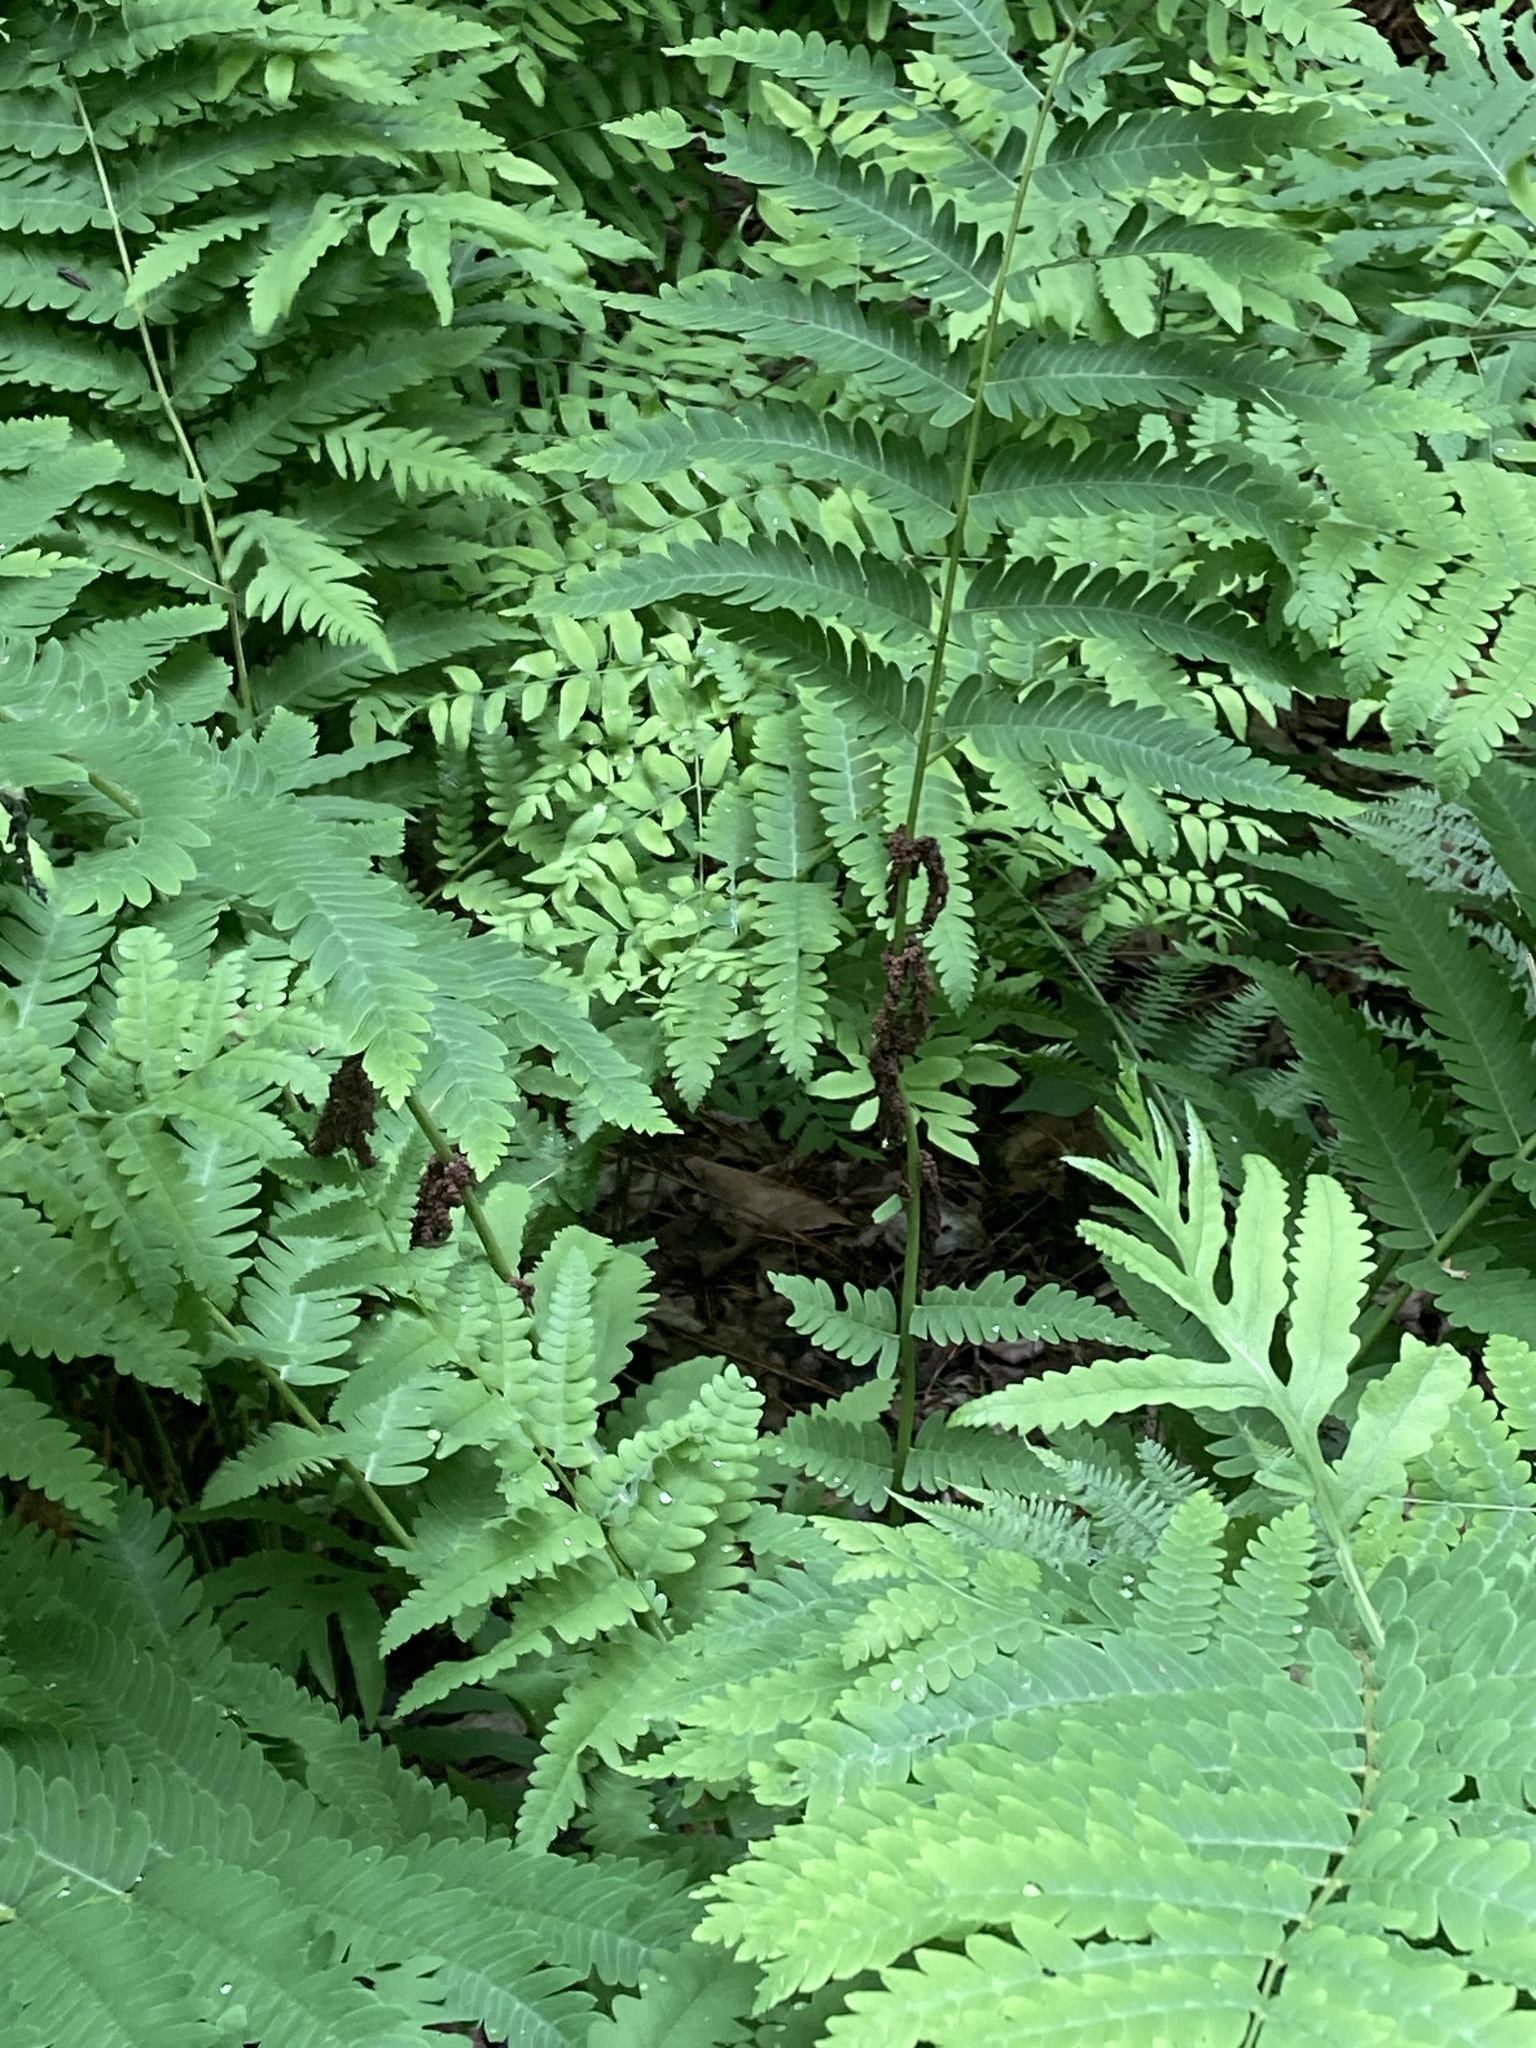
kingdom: Plantae
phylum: Tracheophyta
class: Polypodiopsida
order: Osmundales
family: Osmundaceae
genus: Claytosmunda
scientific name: Claytosmunda claytoniana
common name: Clayton's fern
